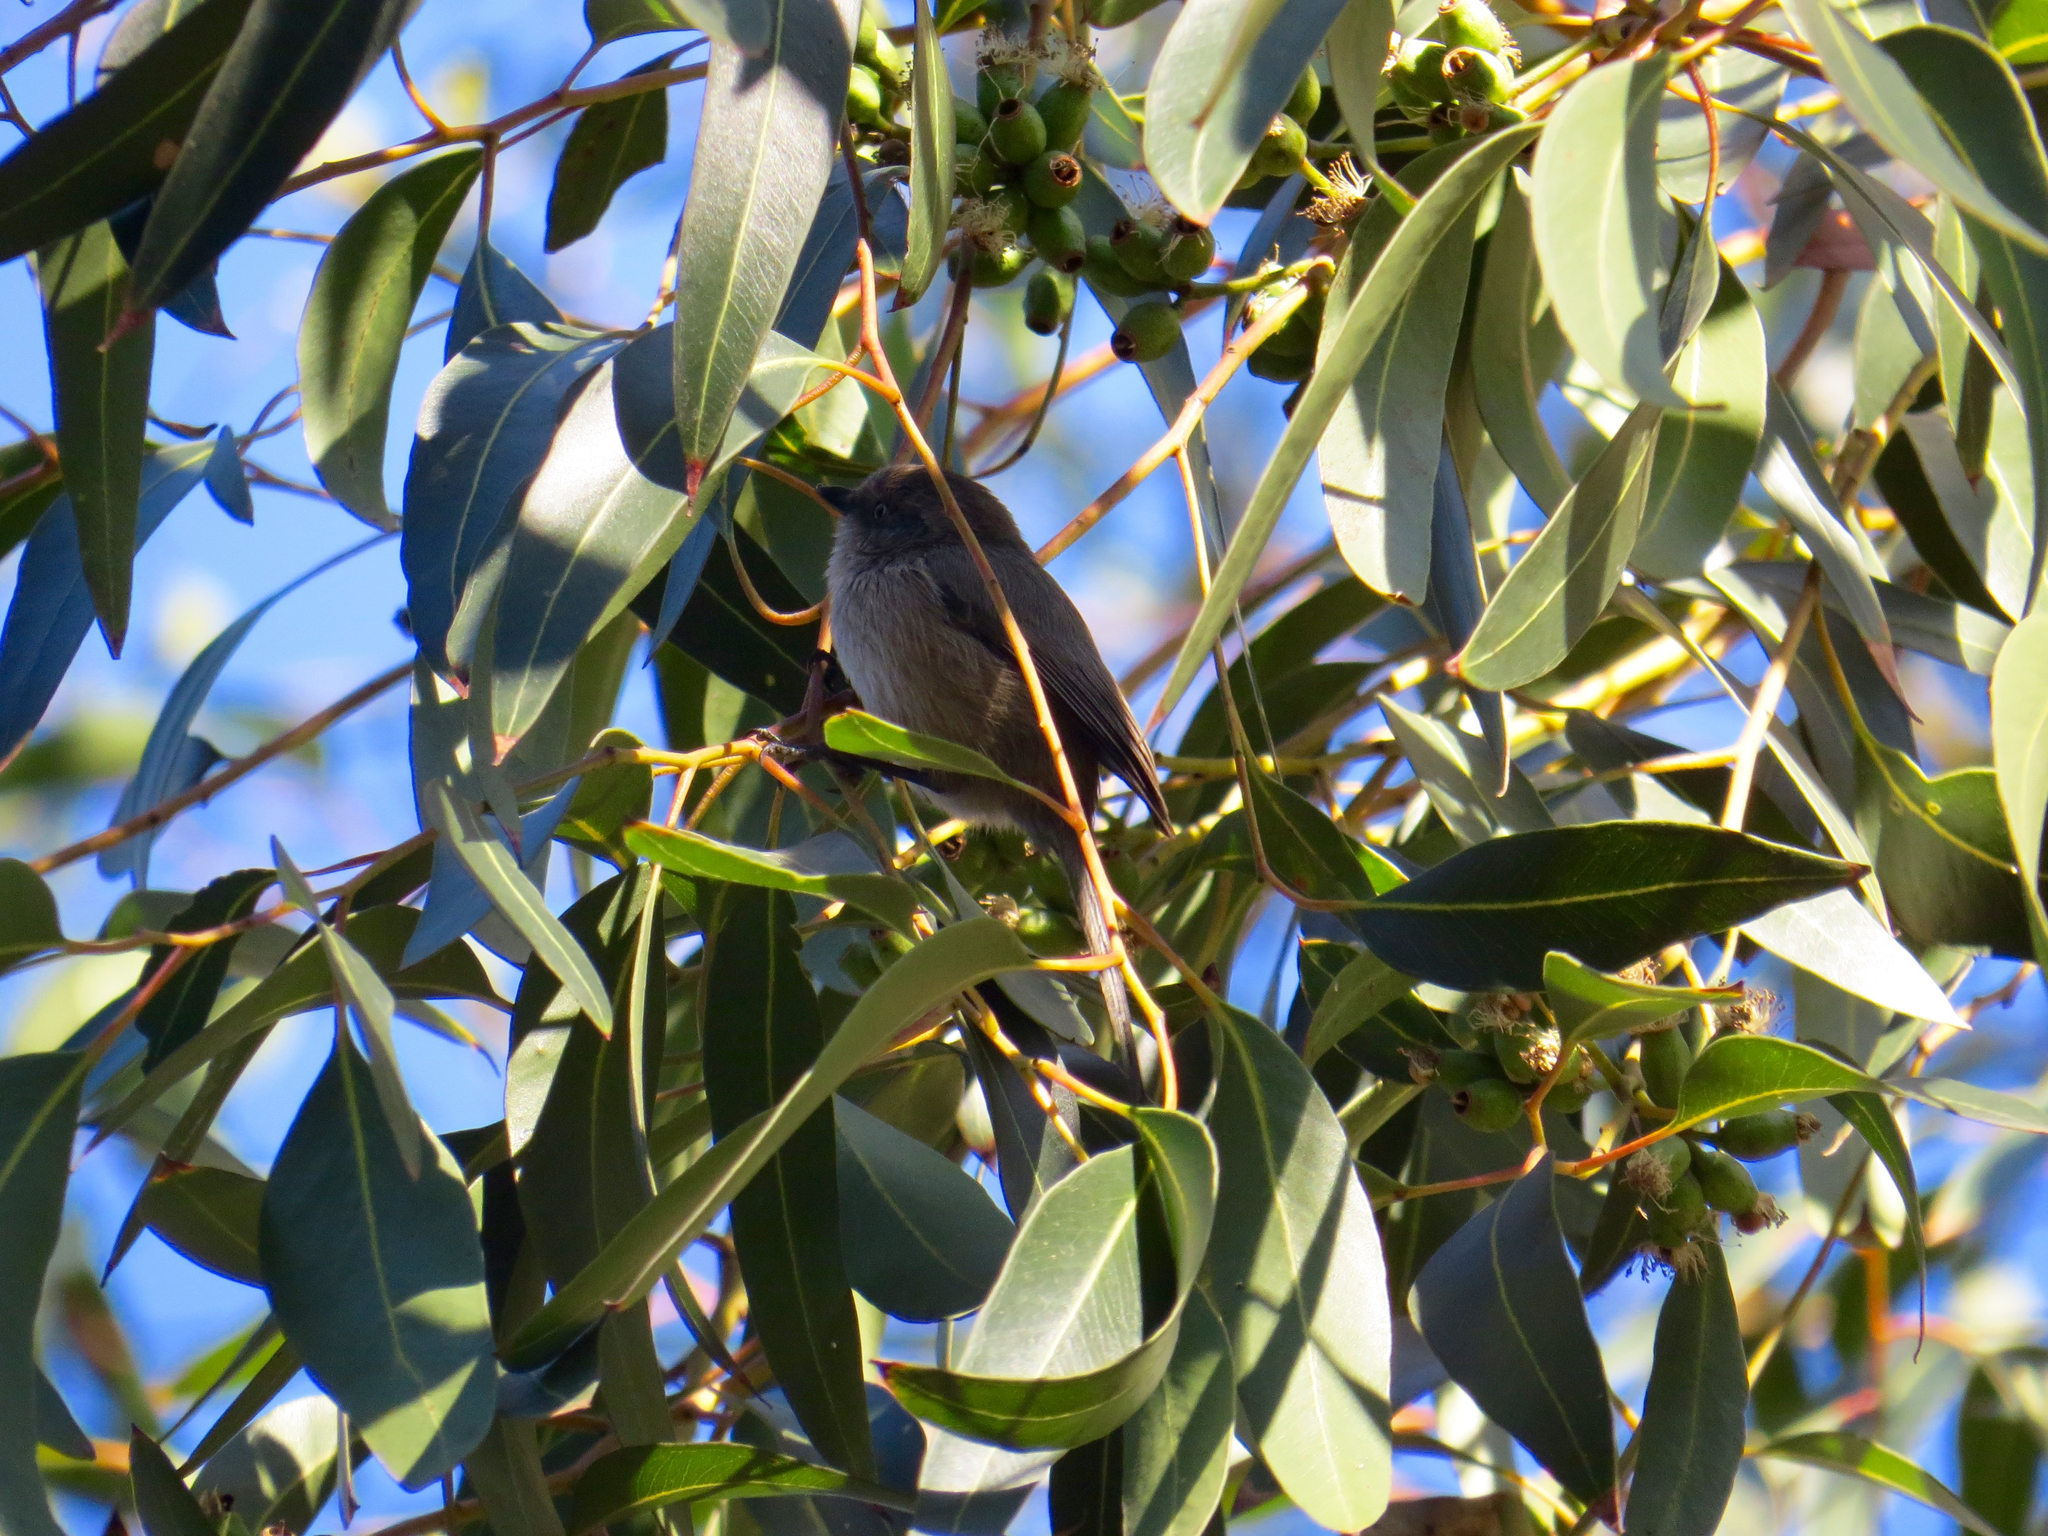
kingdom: Animalia
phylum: Chordata
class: Aves
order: Passeriformes
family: Aegithalidae
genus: Psaltriparus
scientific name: Psaltriparus minimus
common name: American bushtit
